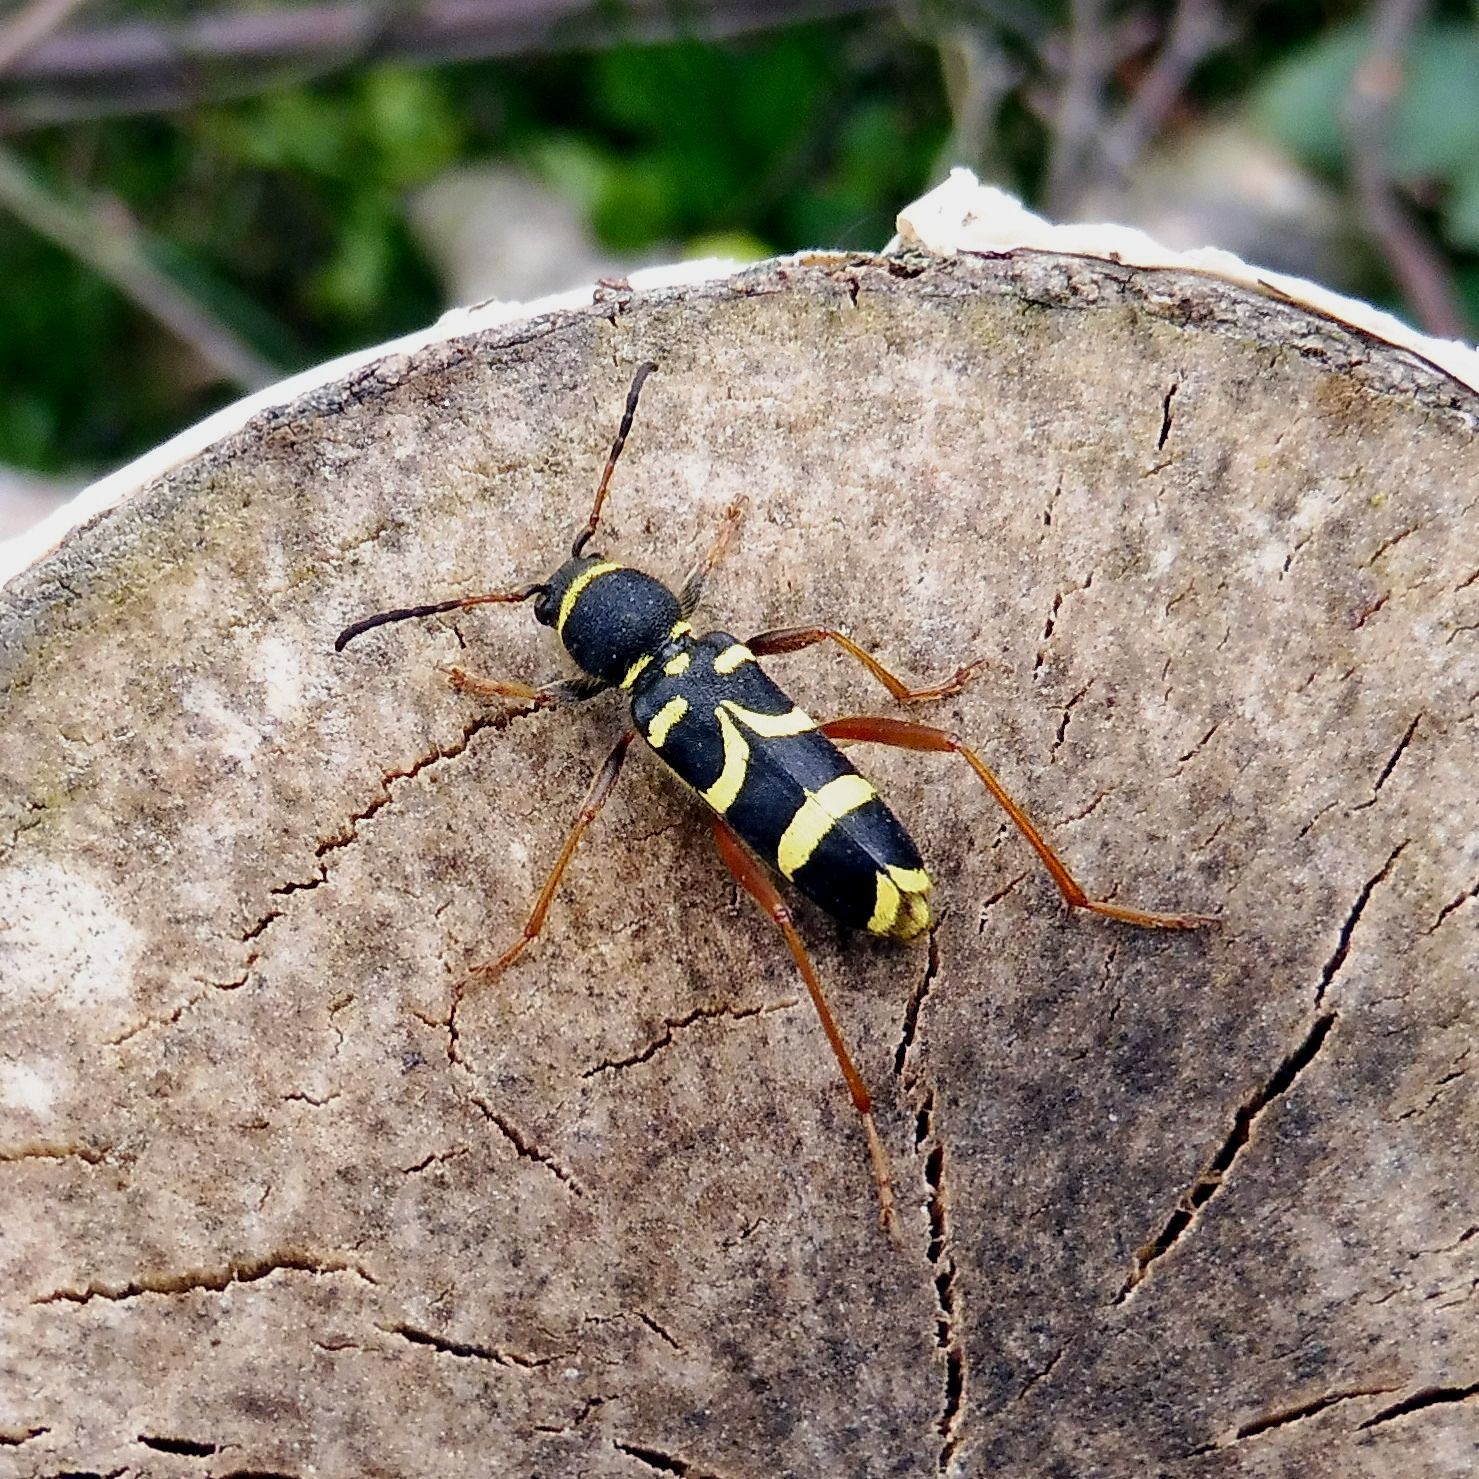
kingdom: Animalia
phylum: Arthropoda
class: Insecta
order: Coleoptera
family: Cerambycidae
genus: Clytus
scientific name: Clytus arietis
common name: Wasp beetle
